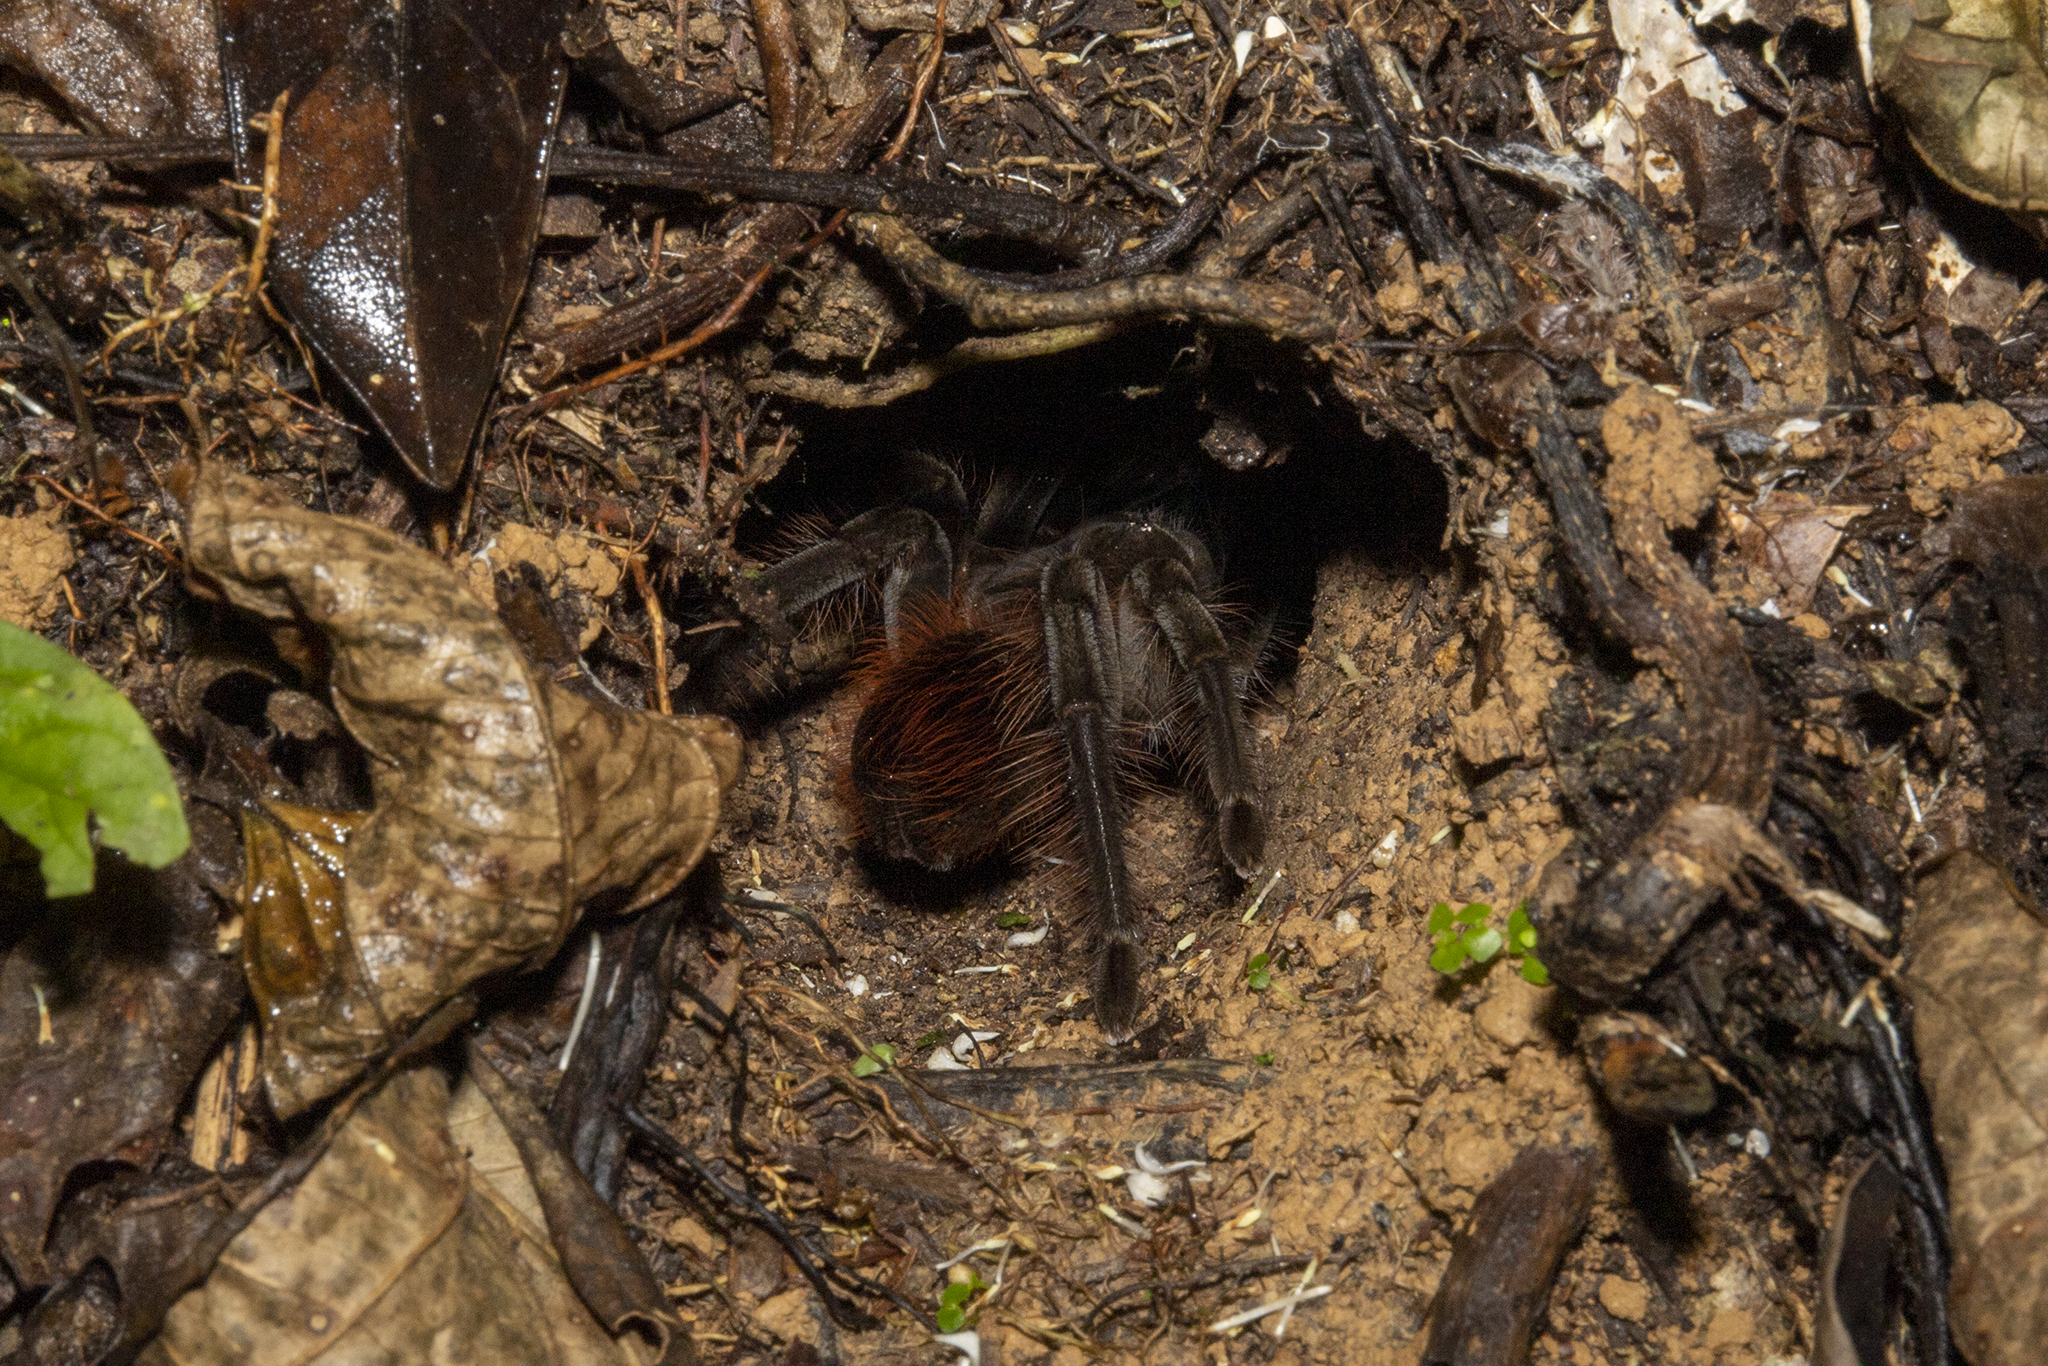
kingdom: Animalia
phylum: Arthropoda
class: Arachnida
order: Araneae
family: Theraphosidae
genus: Megaphobema
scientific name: Megaphobema velvetosoma
